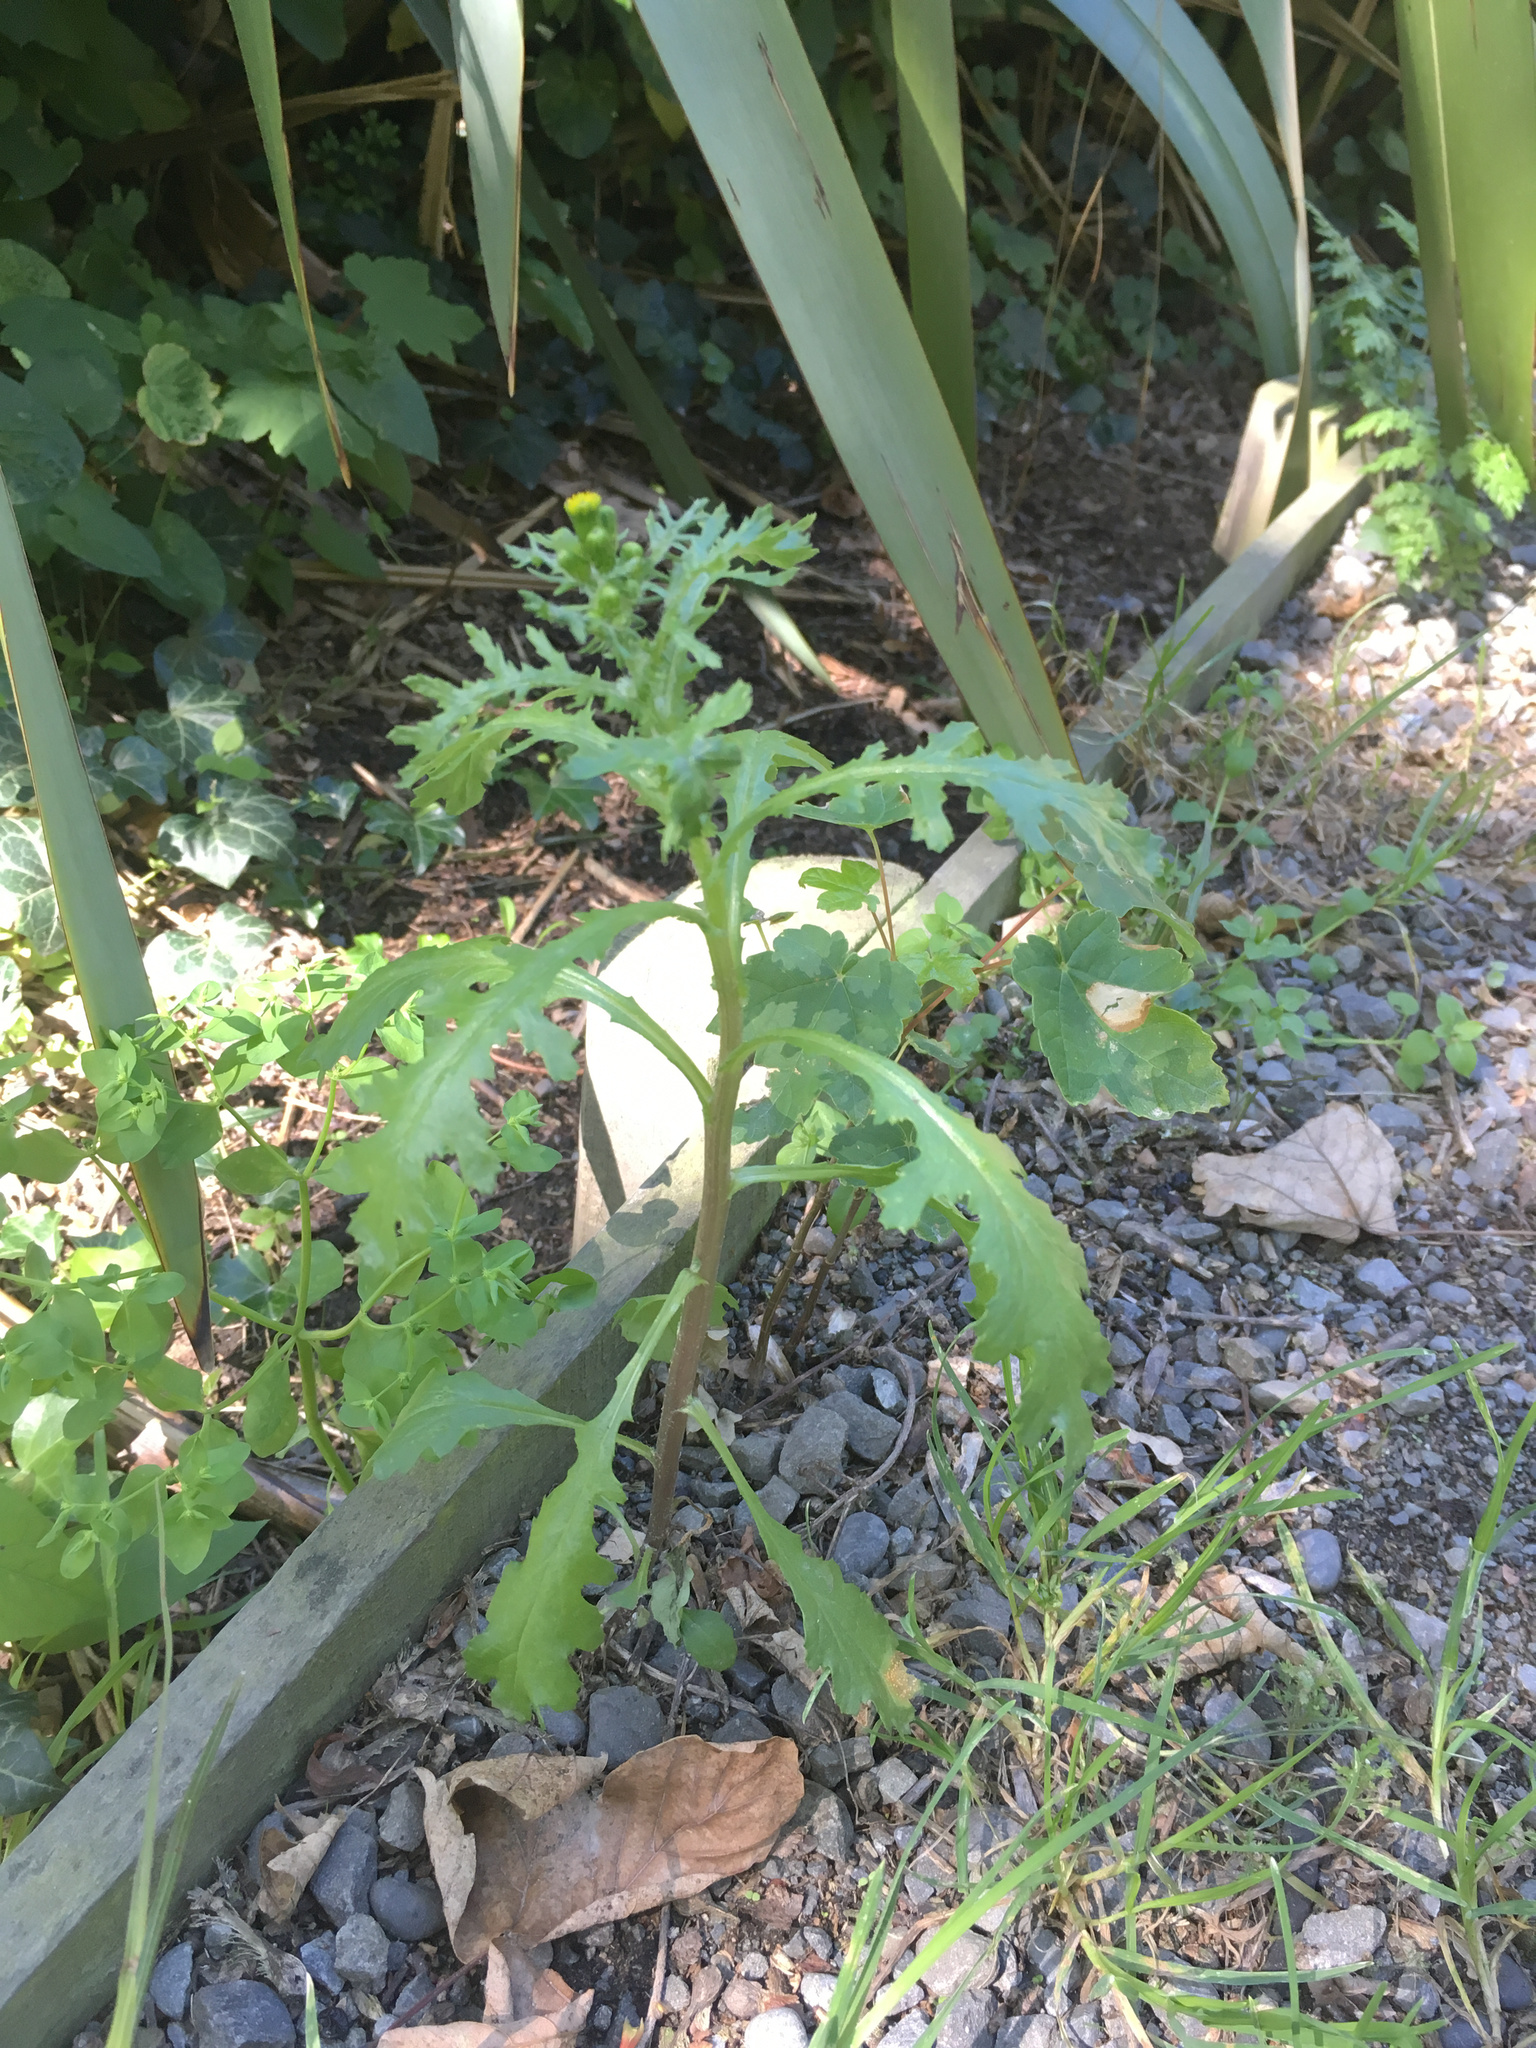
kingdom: Plantae
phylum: Tracheophyta
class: Magnoliopsida
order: Asterales
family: Asteraceae
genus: Senecio
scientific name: Senecio vulgaris
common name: Old-man-in-the-spring
